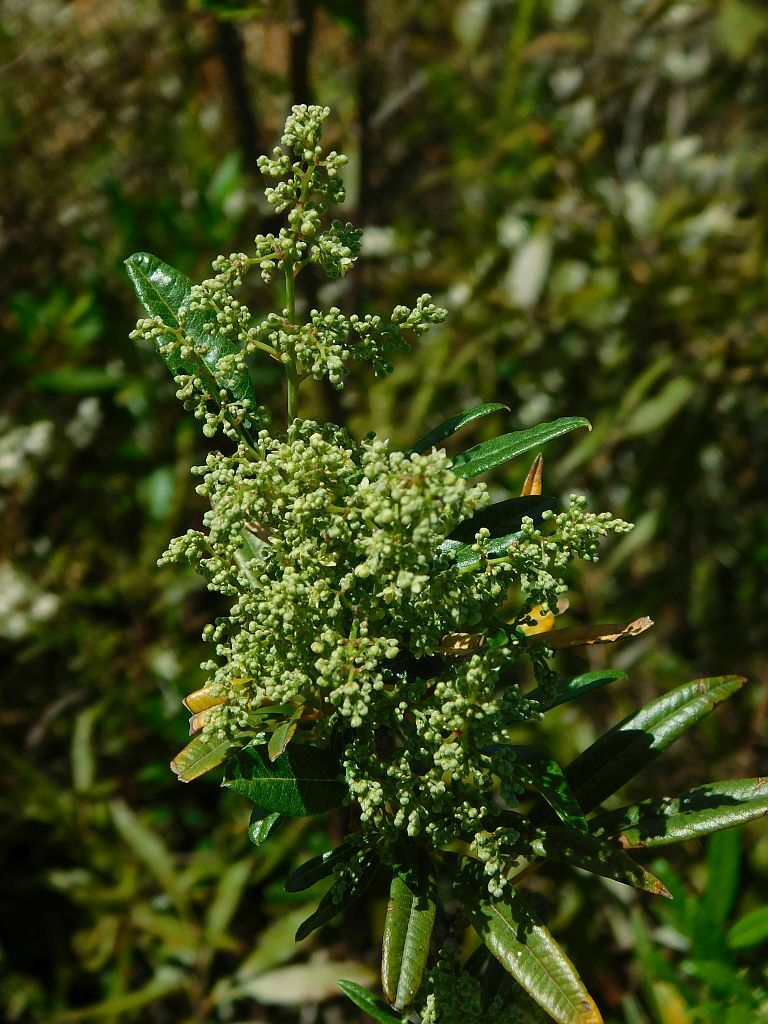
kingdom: Plantae
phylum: Tracheophyta
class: Magnoliopsida
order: Sapindales
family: Anacardiaceae
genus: Searsia
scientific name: Searsia angustifolia
